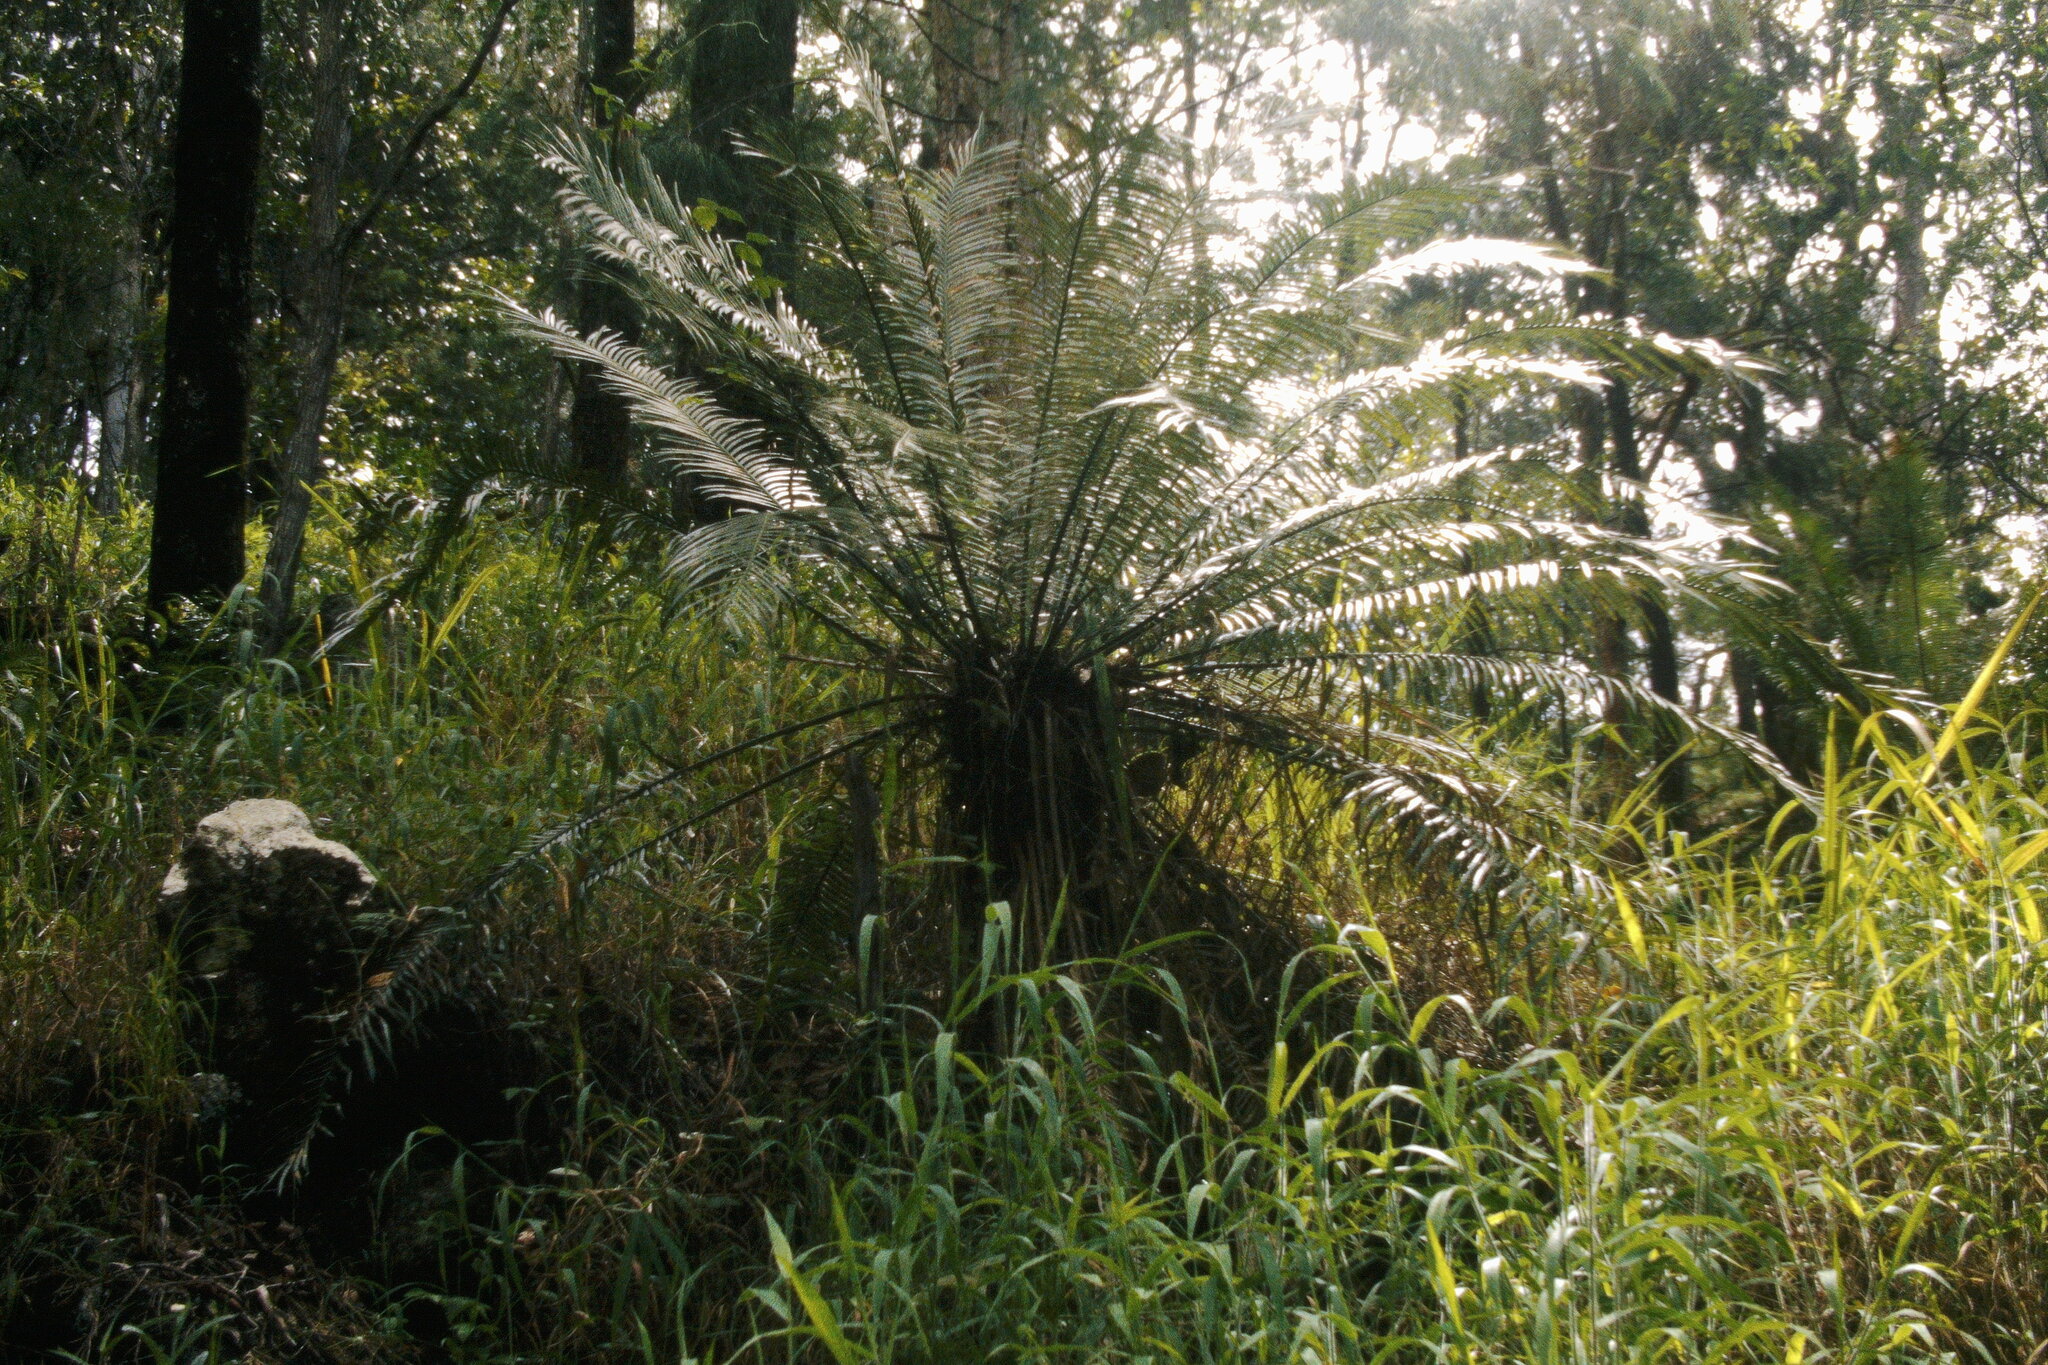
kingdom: Plantae
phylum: Tracheophyta
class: Cycadopsida
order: Cycadales
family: Cycadaceae
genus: Cycas
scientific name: Cycas media
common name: Queensland cycas
